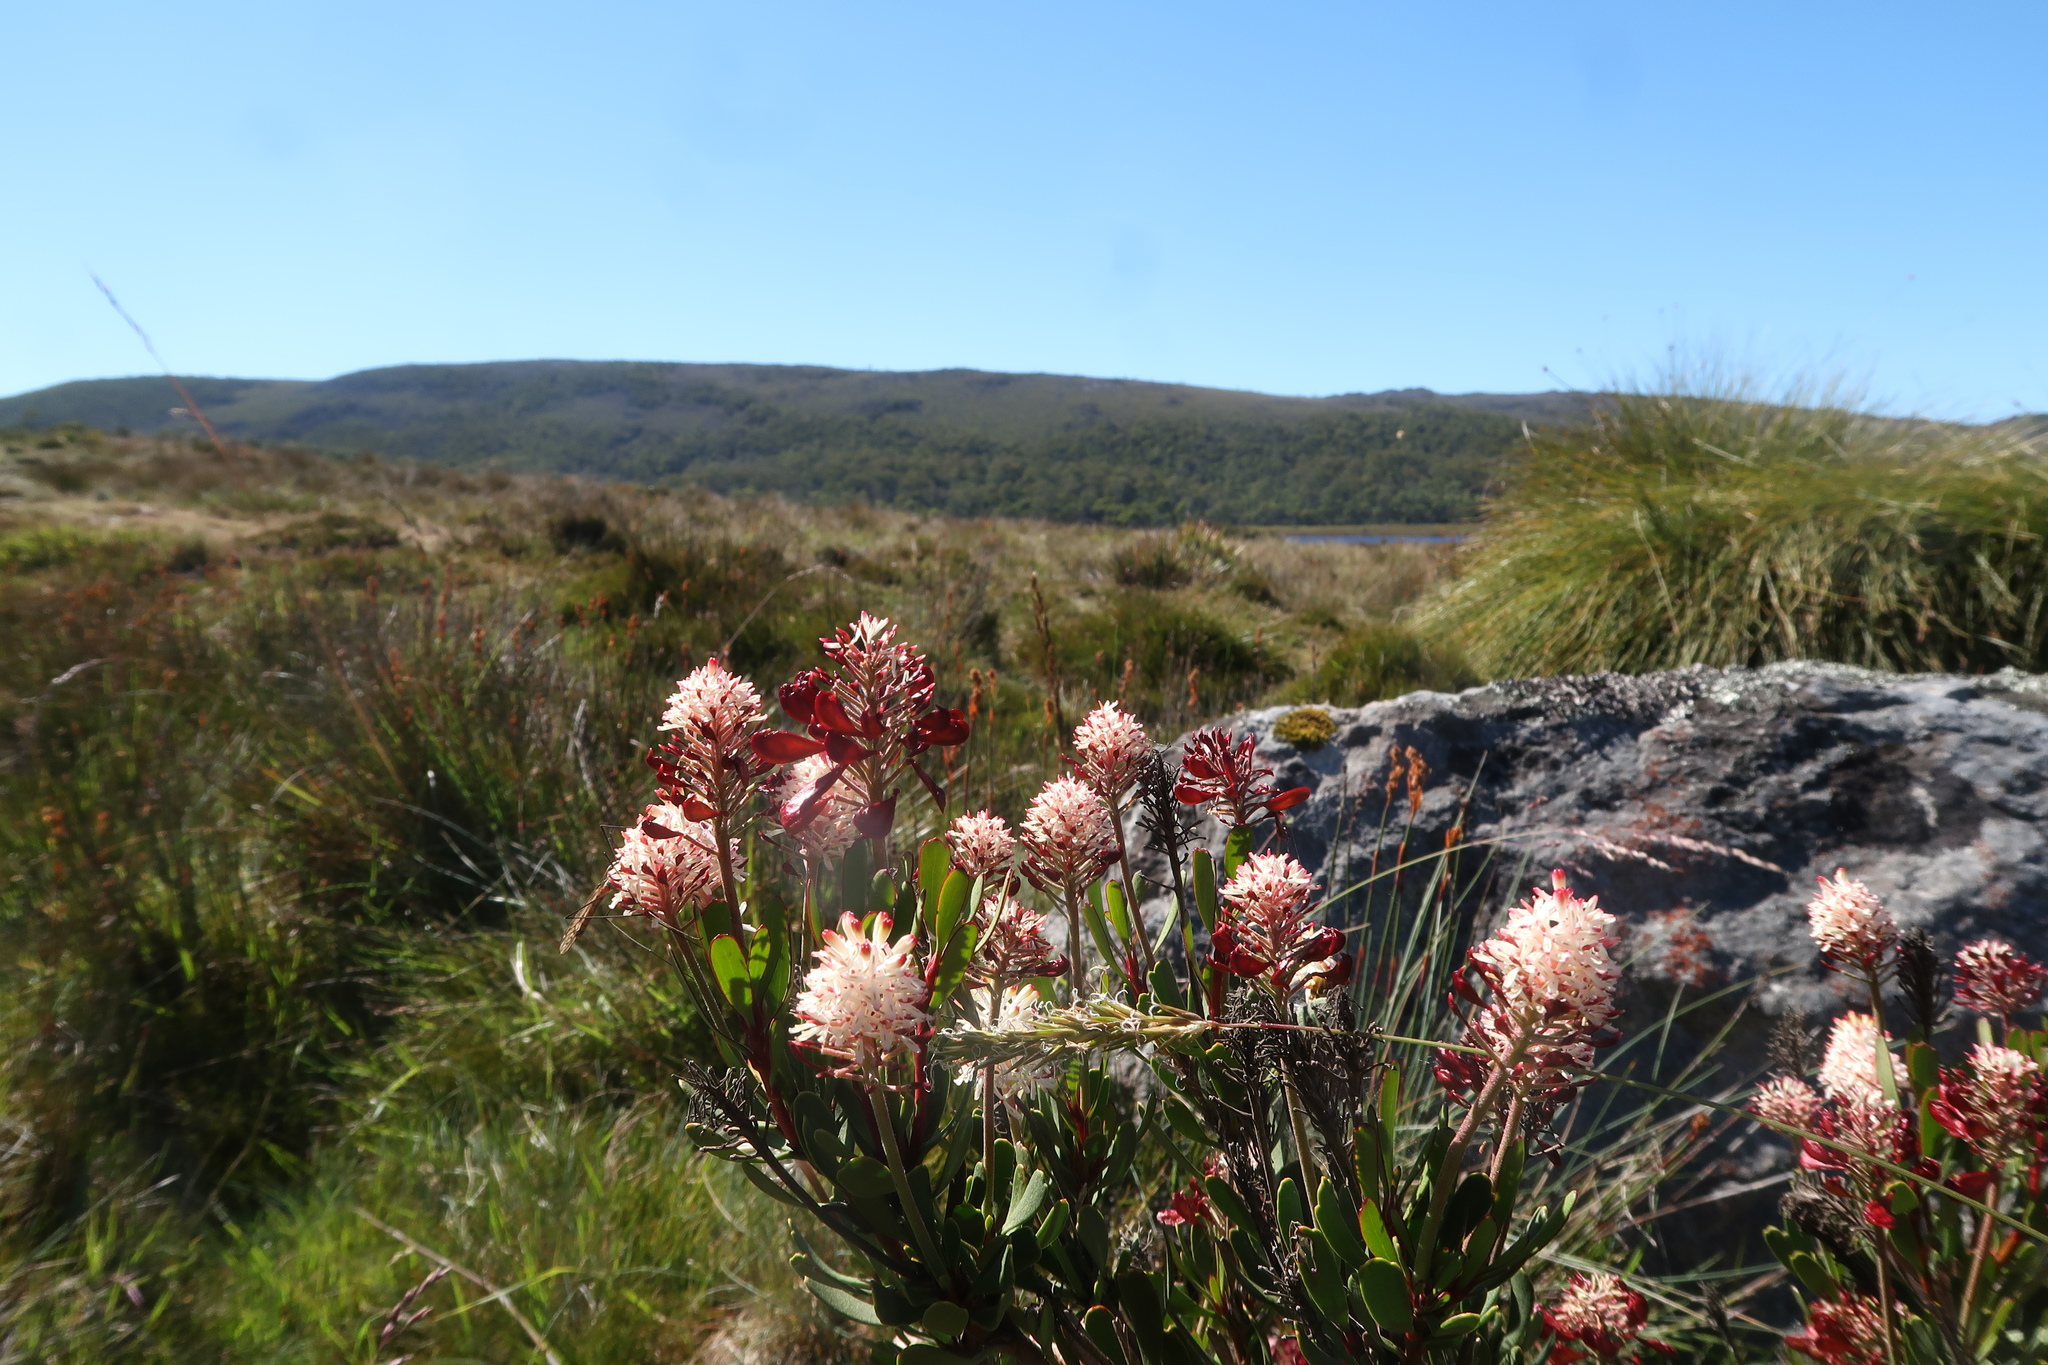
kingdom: Plantae
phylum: Tracheophyta
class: Magnoliopsida
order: Proteales
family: Proteaceae
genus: Bellendena
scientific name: Bellendena montana
